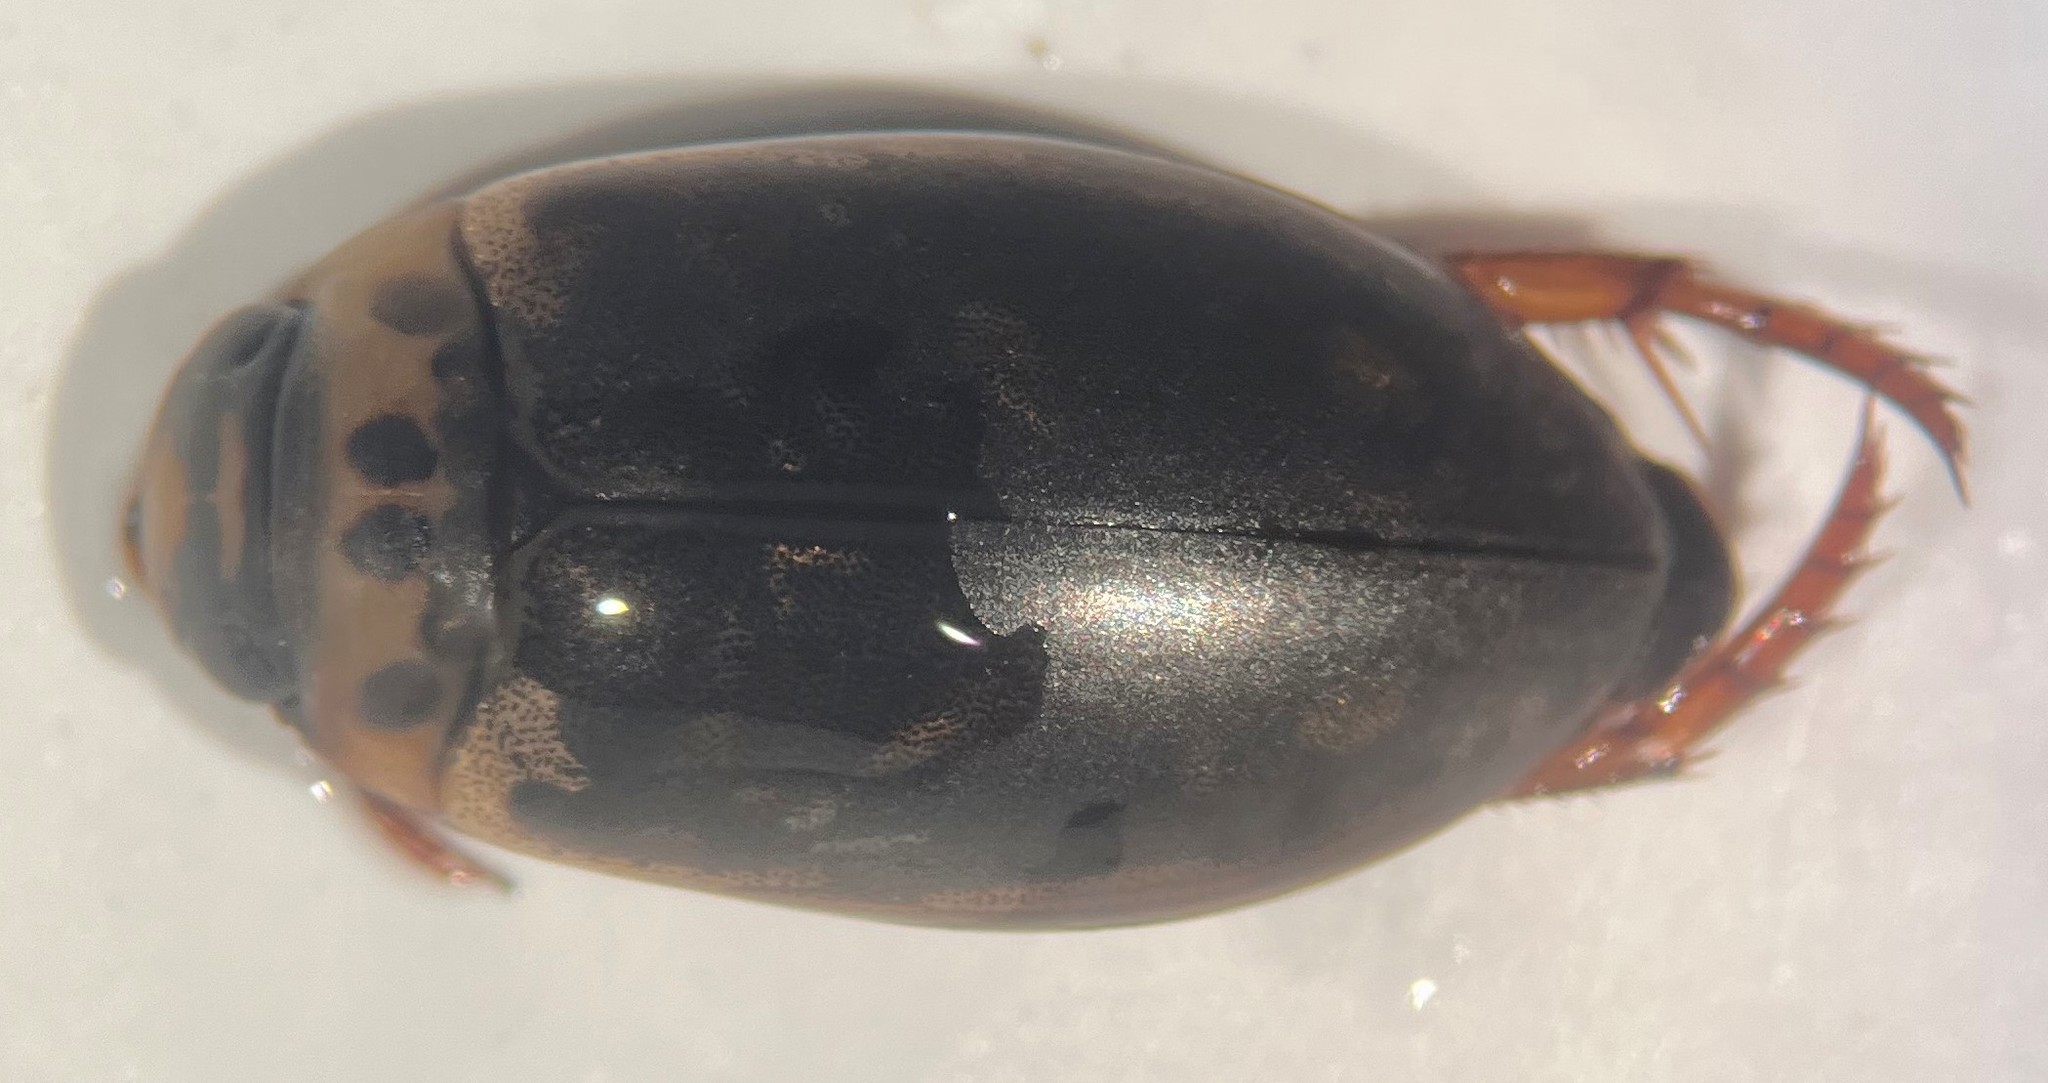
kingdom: Animalia
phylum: Arthropoda
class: Insecta
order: Coleoptera
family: Dytiscidae
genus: Rhantus
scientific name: Rhantus gutticollis
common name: Predaceous diving beetle
